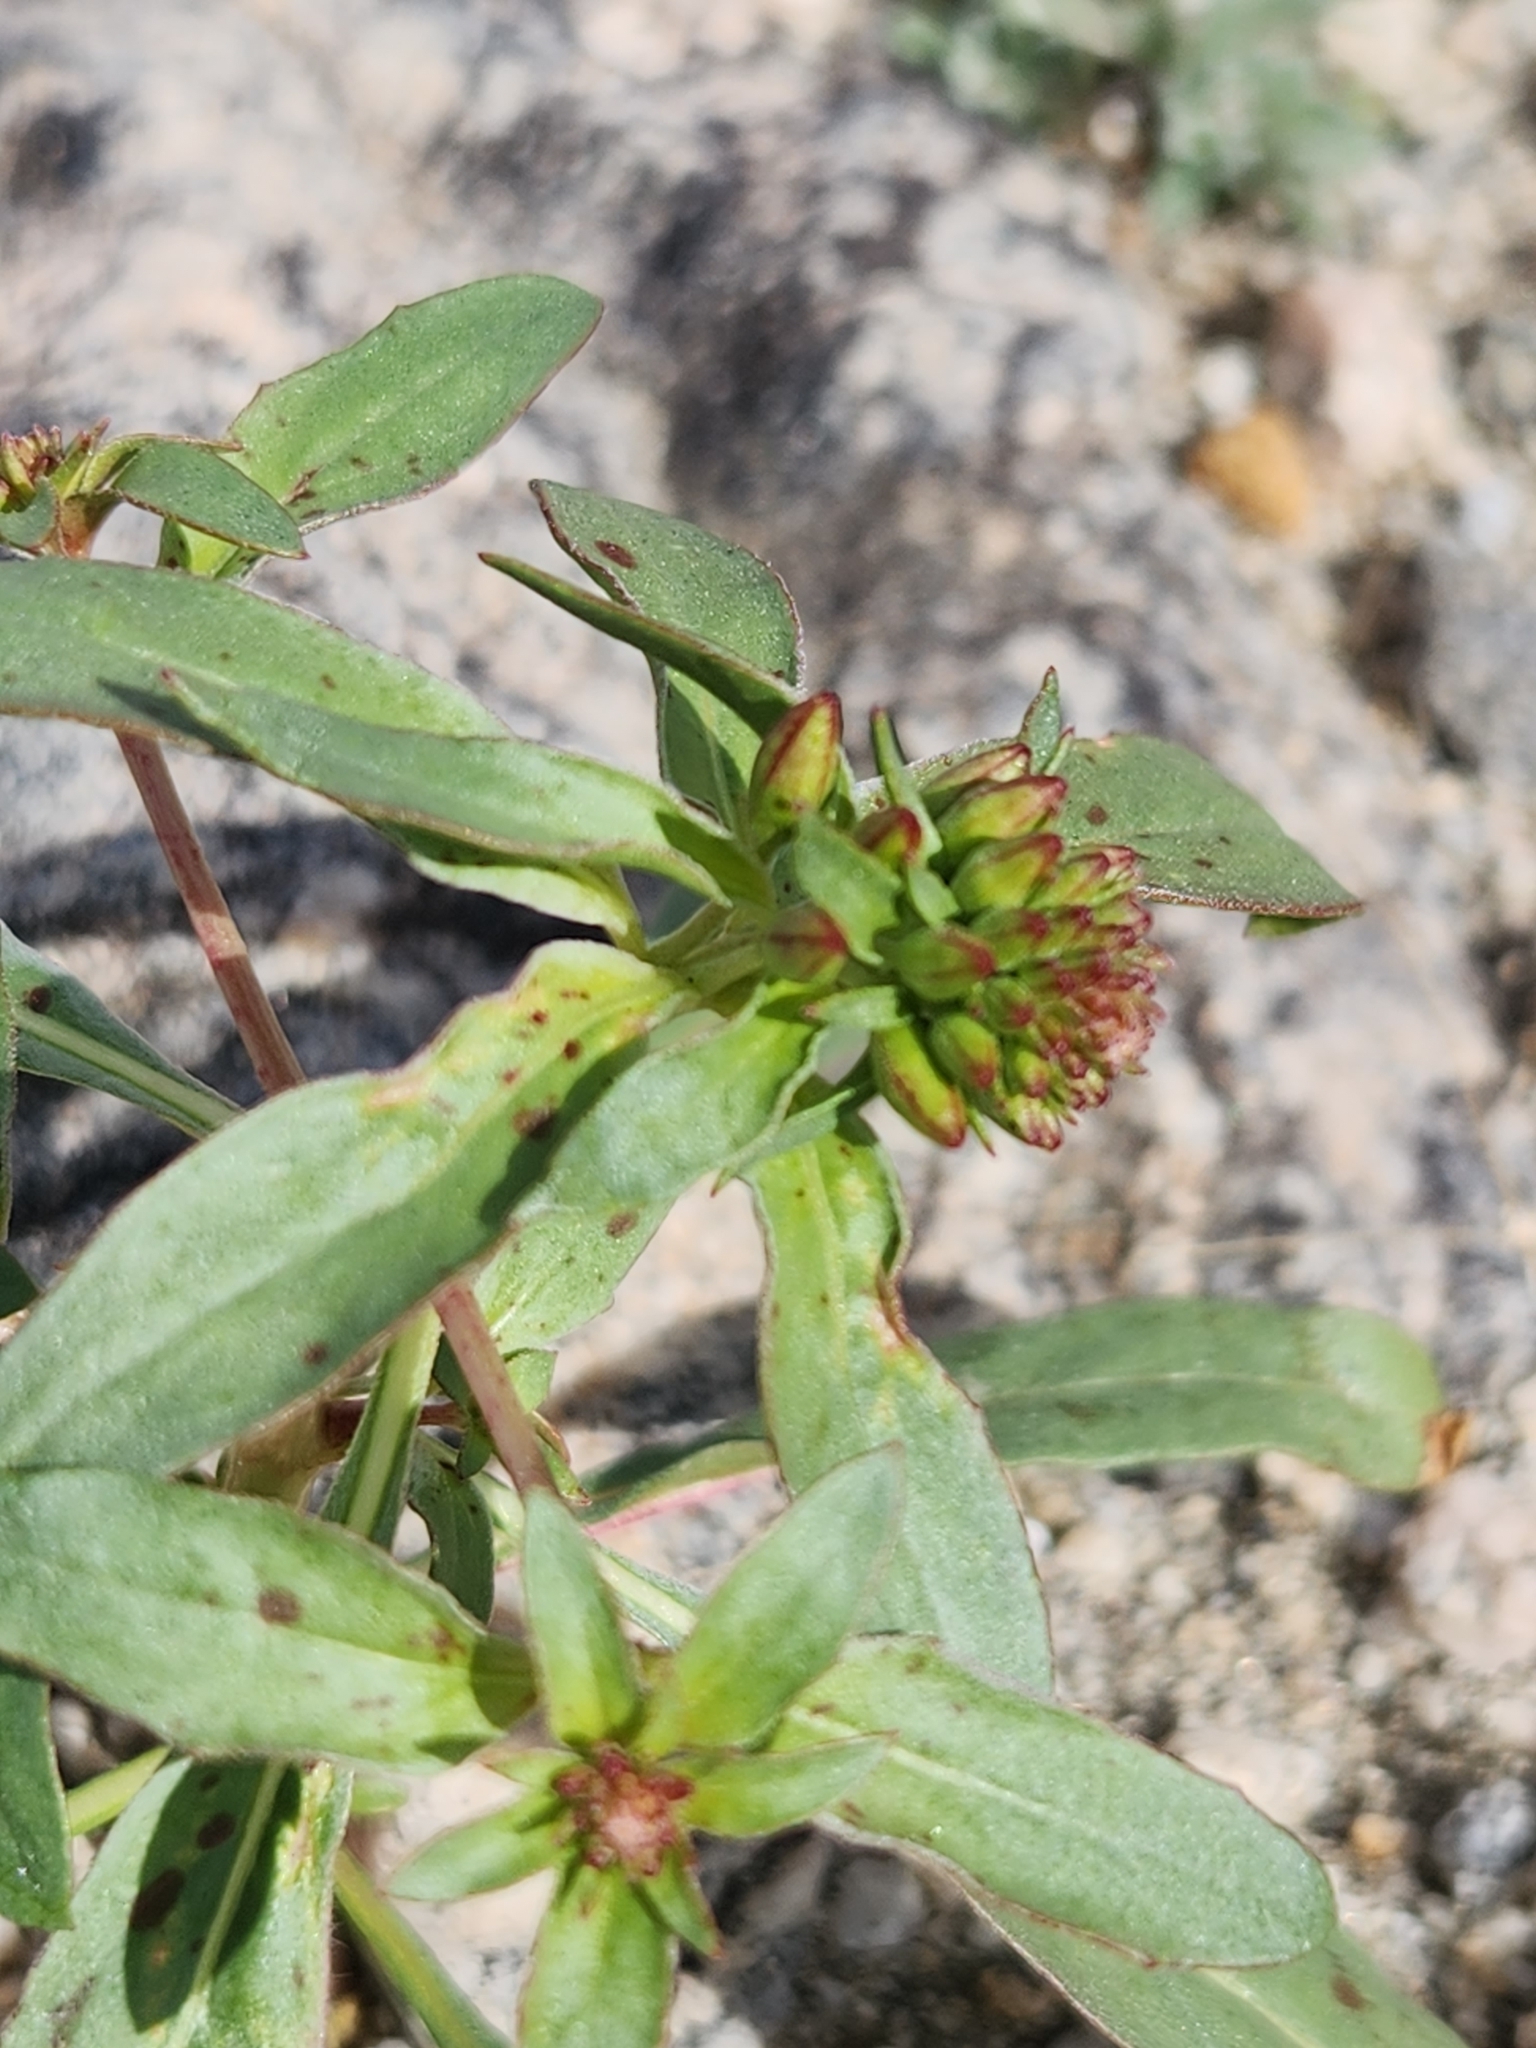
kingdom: Plantae
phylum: Tracheophyta
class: Magnoliopsida
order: Myrtales
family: Onagraceae
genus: Eremothera
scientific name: Eremothera boothii
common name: Booth's evening primrose
